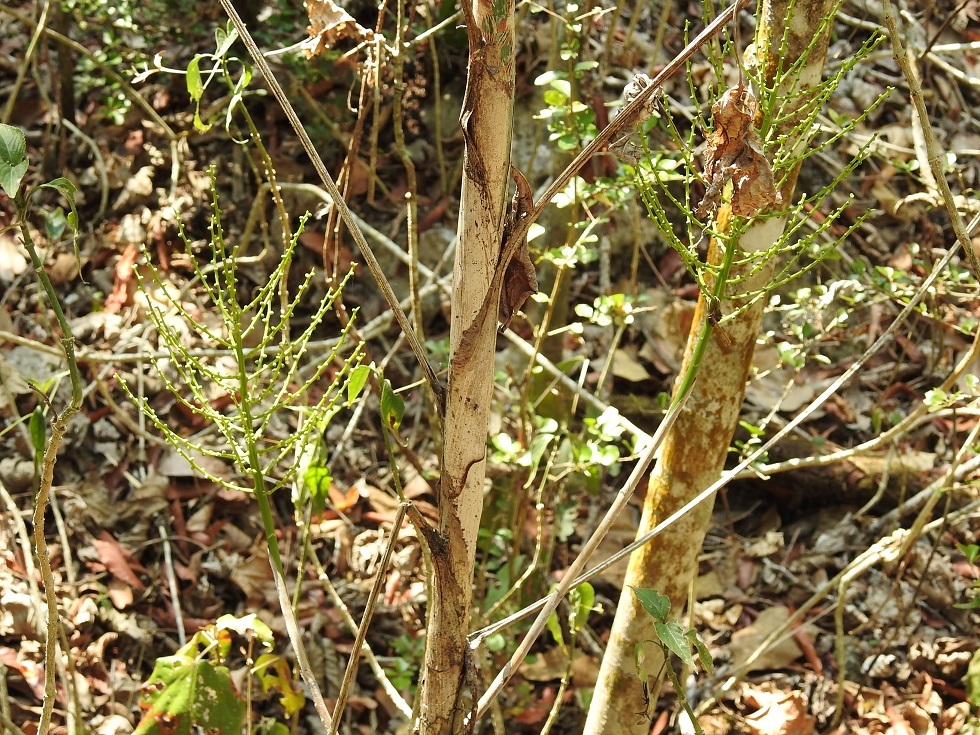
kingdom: Plantae
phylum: Tracheophyta
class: Liliopsida
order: Arecales
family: Arecaceae
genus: Chamaedorea
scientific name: Chamaedorea glaucifolia
